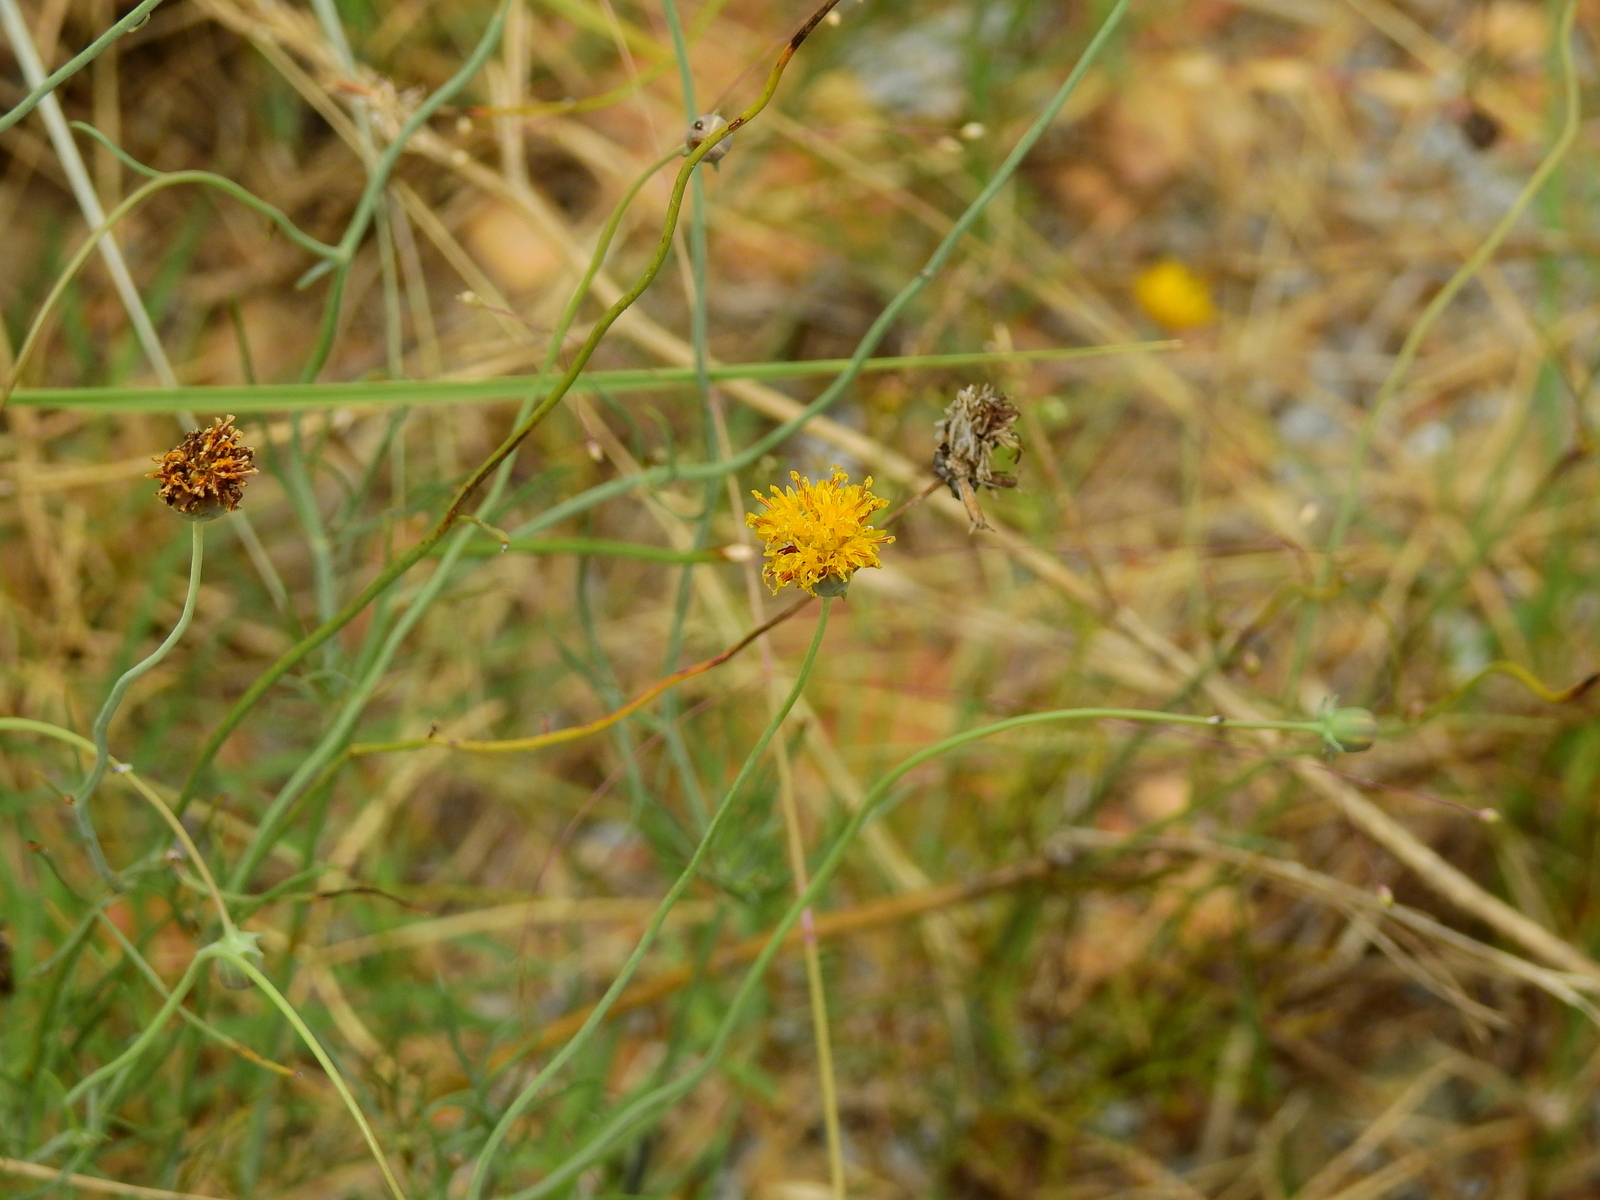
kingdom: Plantae
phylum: Tracheophyta
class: Magnoliopsida
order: Asterales
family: Asteraceae
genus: Thelesperma
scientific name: Thelesperma megapotamicum
